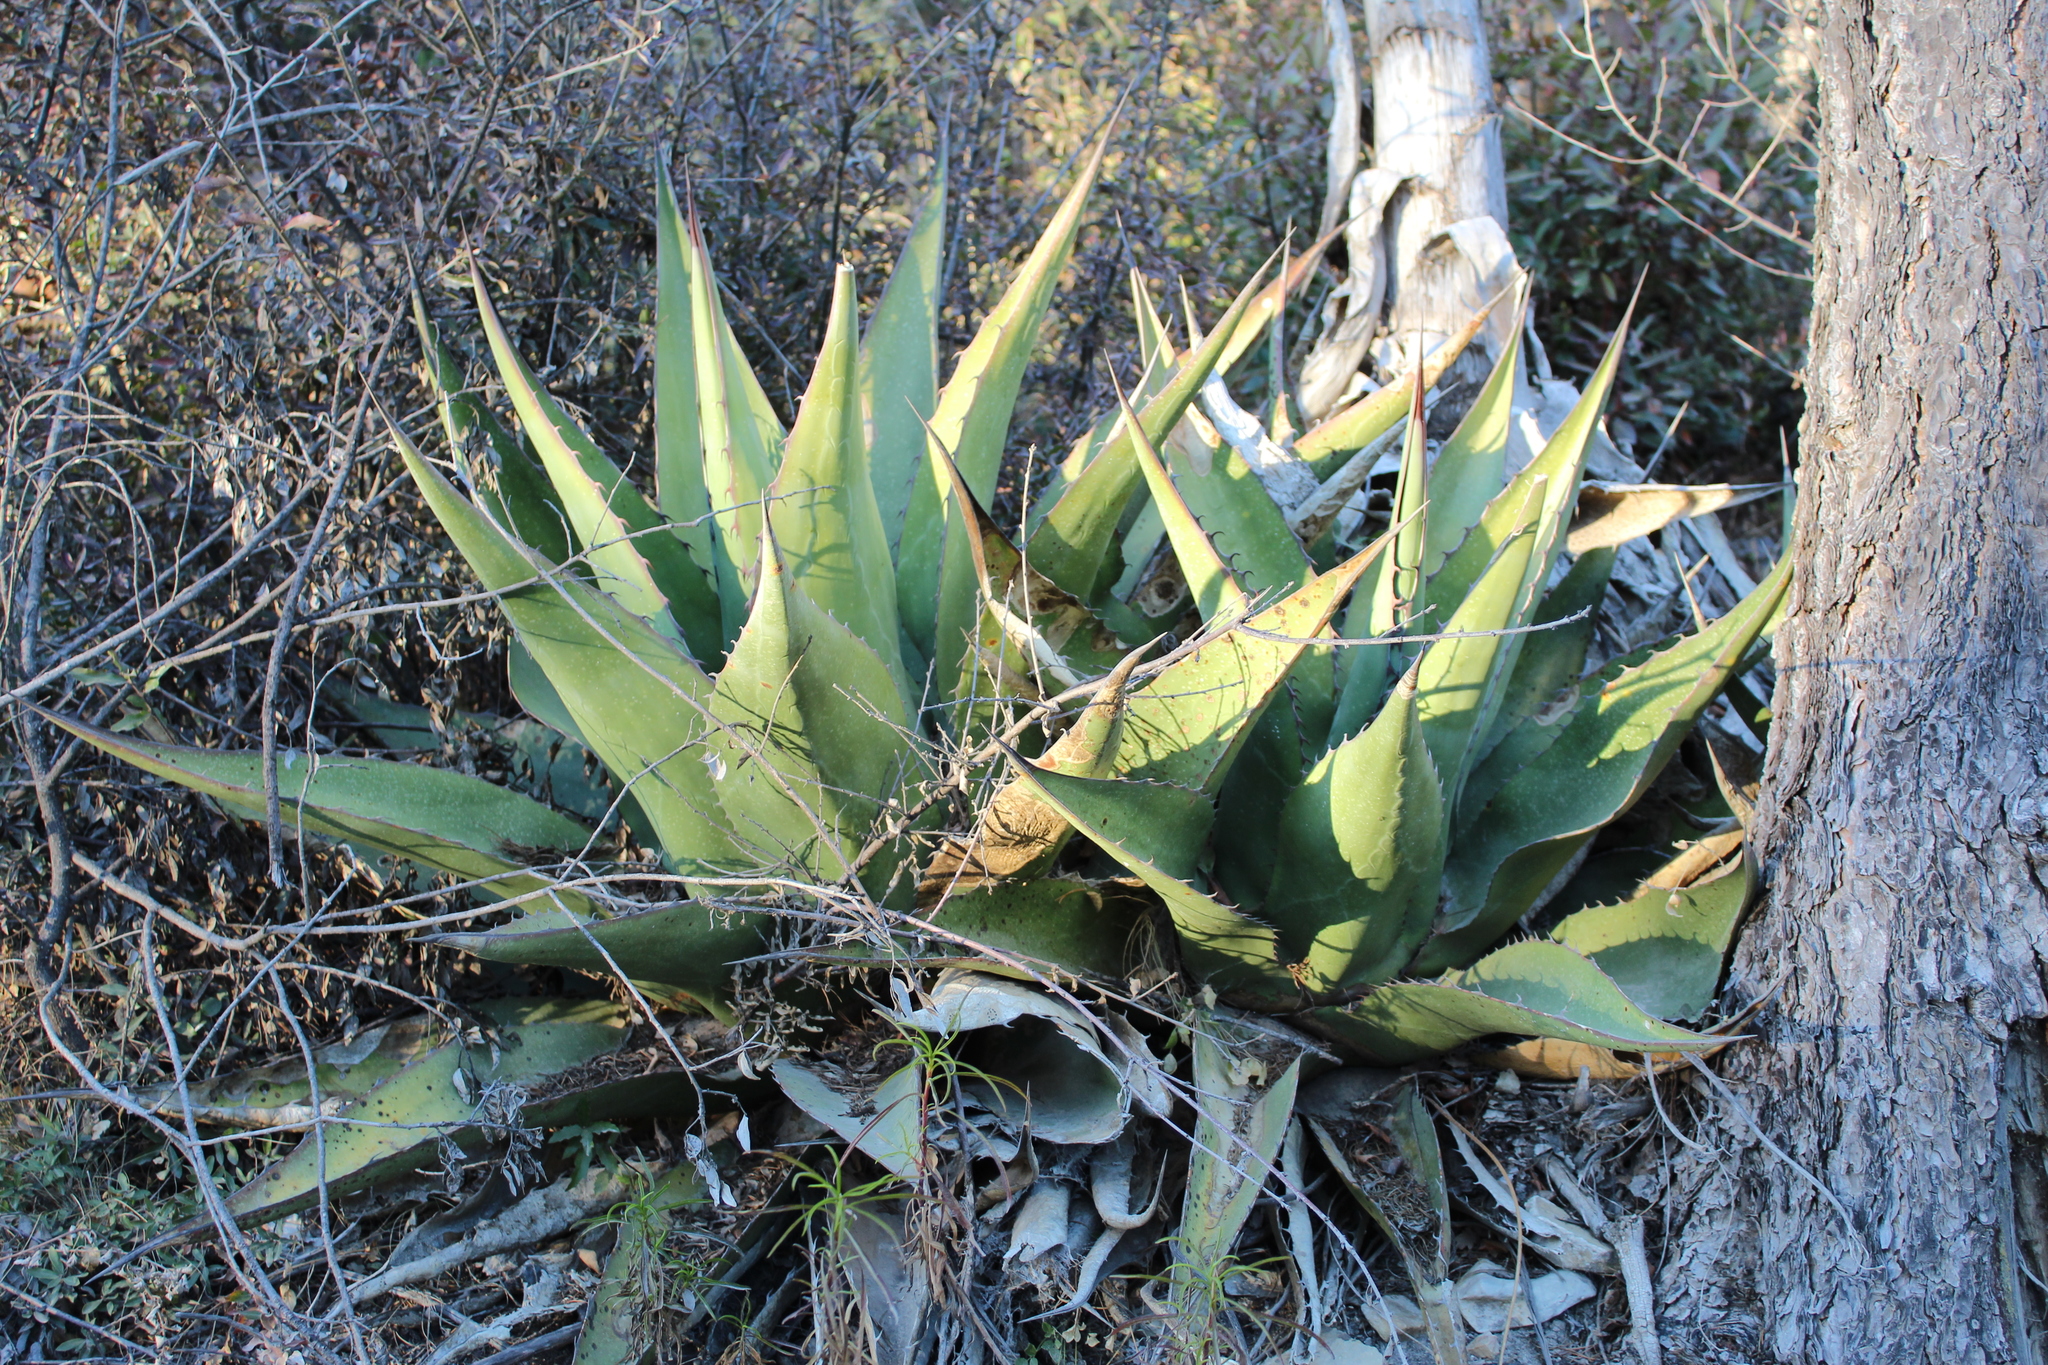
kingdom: Plantae
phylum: Tracheophyta
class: Liliopsida
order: Asparagales
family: Asparagaceae
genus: Agave
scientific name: Agave gentryi
